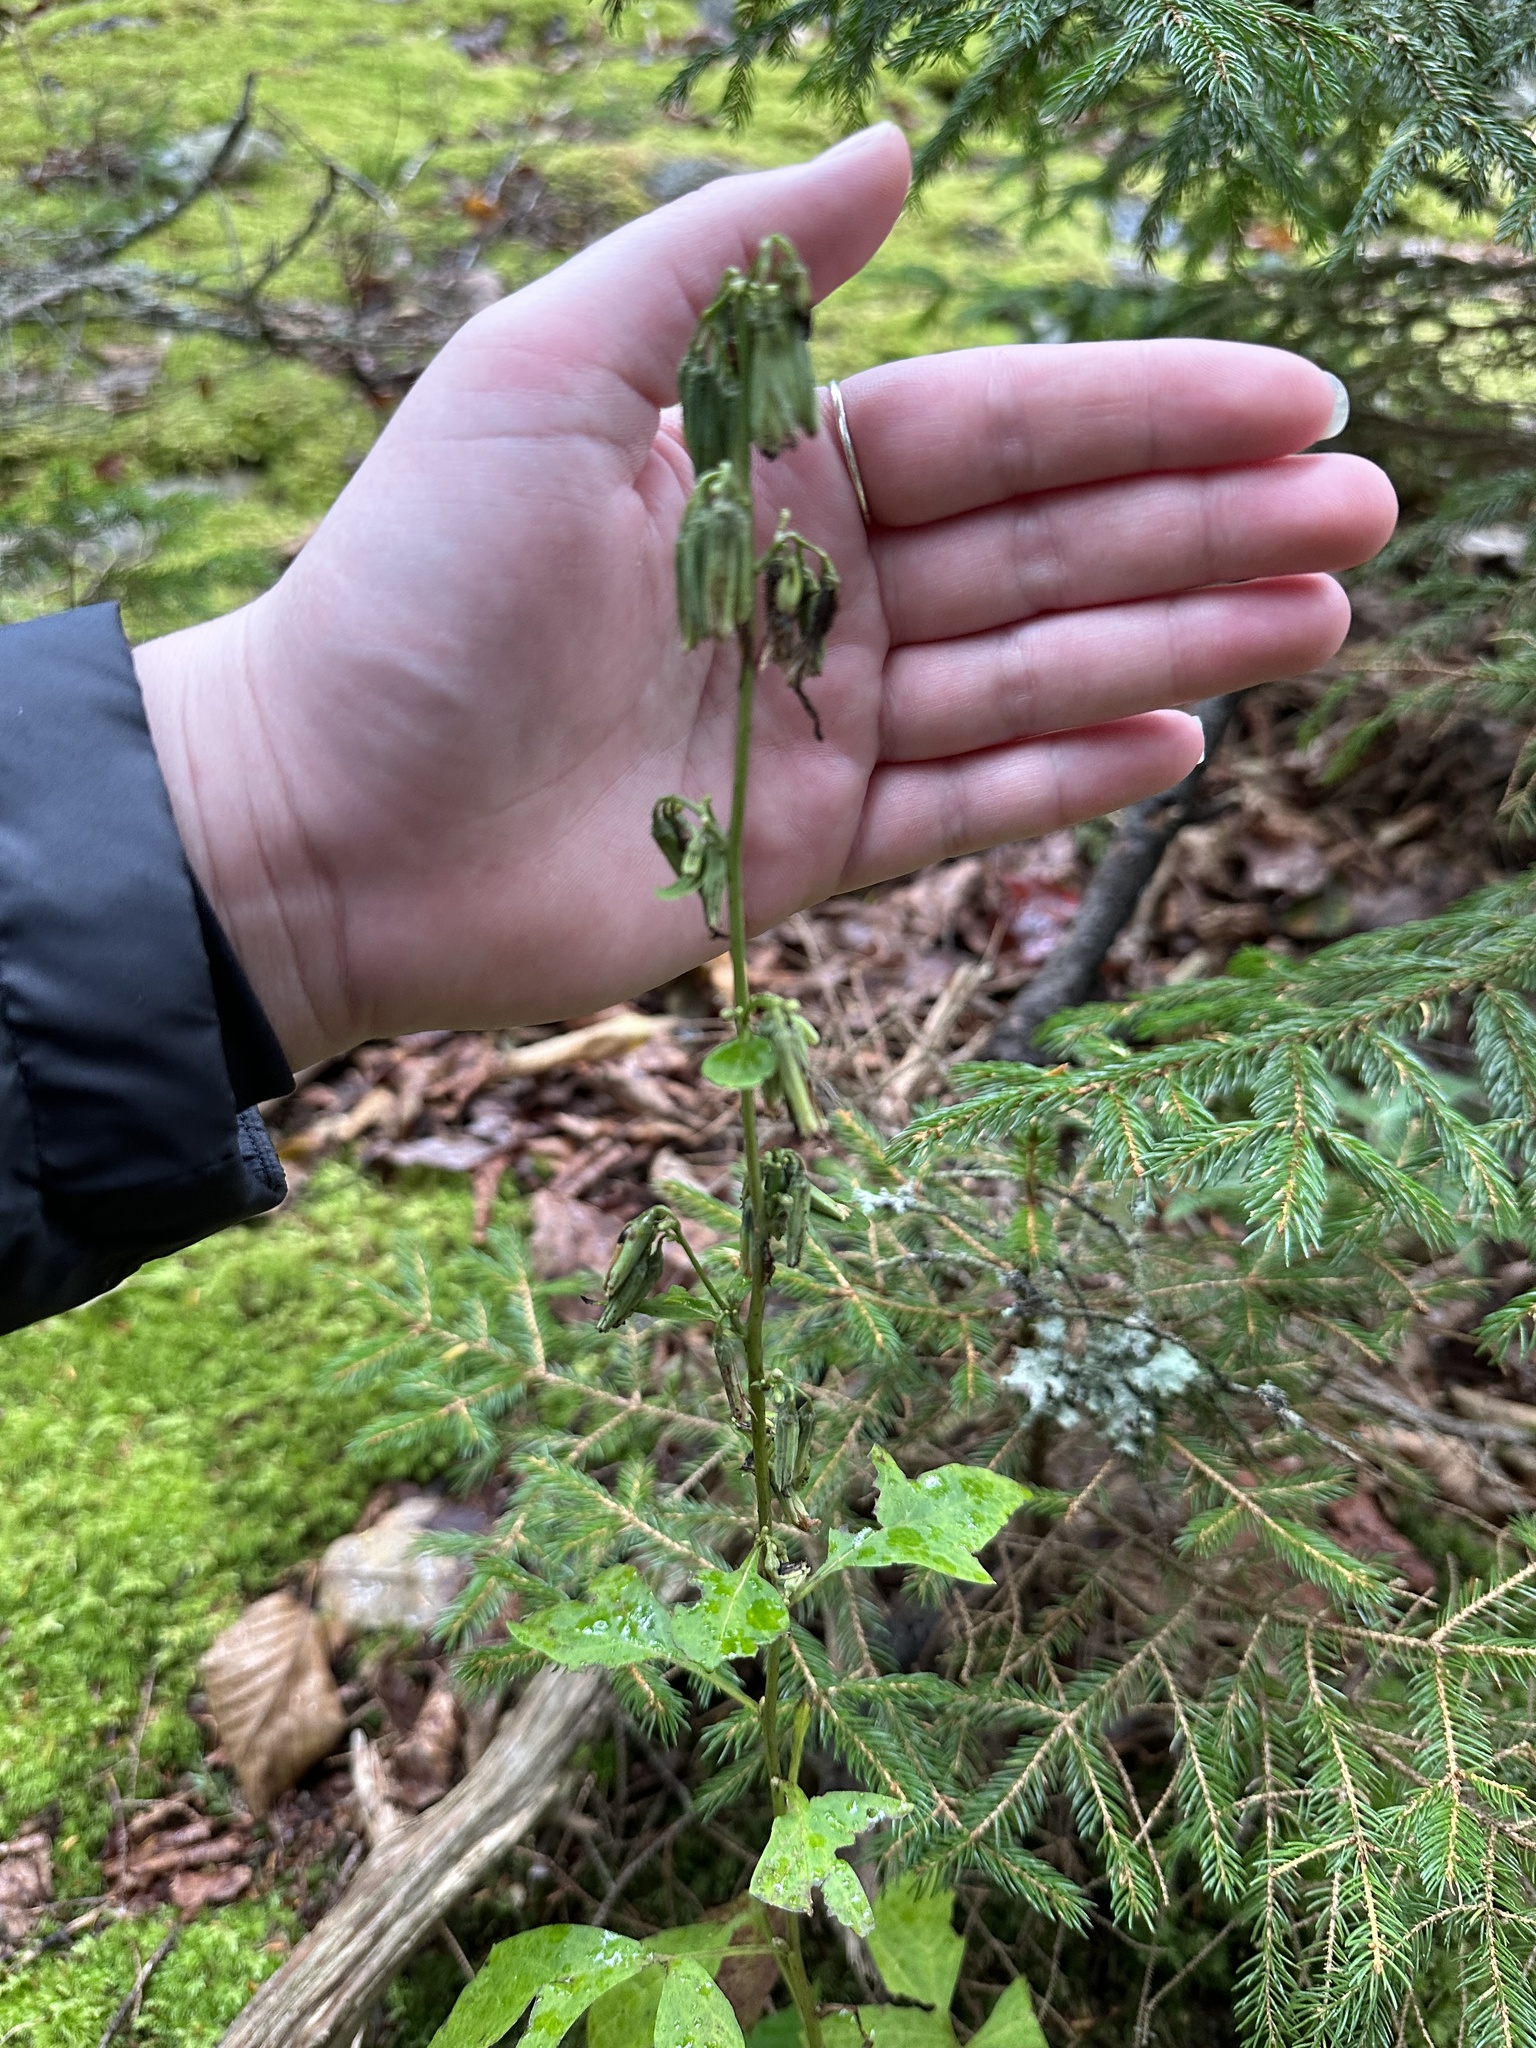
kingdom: Plantae
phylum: Tracheophyta
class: Magnoliopsida
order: Asterales
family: Asteraceae
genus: Nabalus
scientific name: Nabalus trifoliolatus
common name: Gall-of-the-earth
